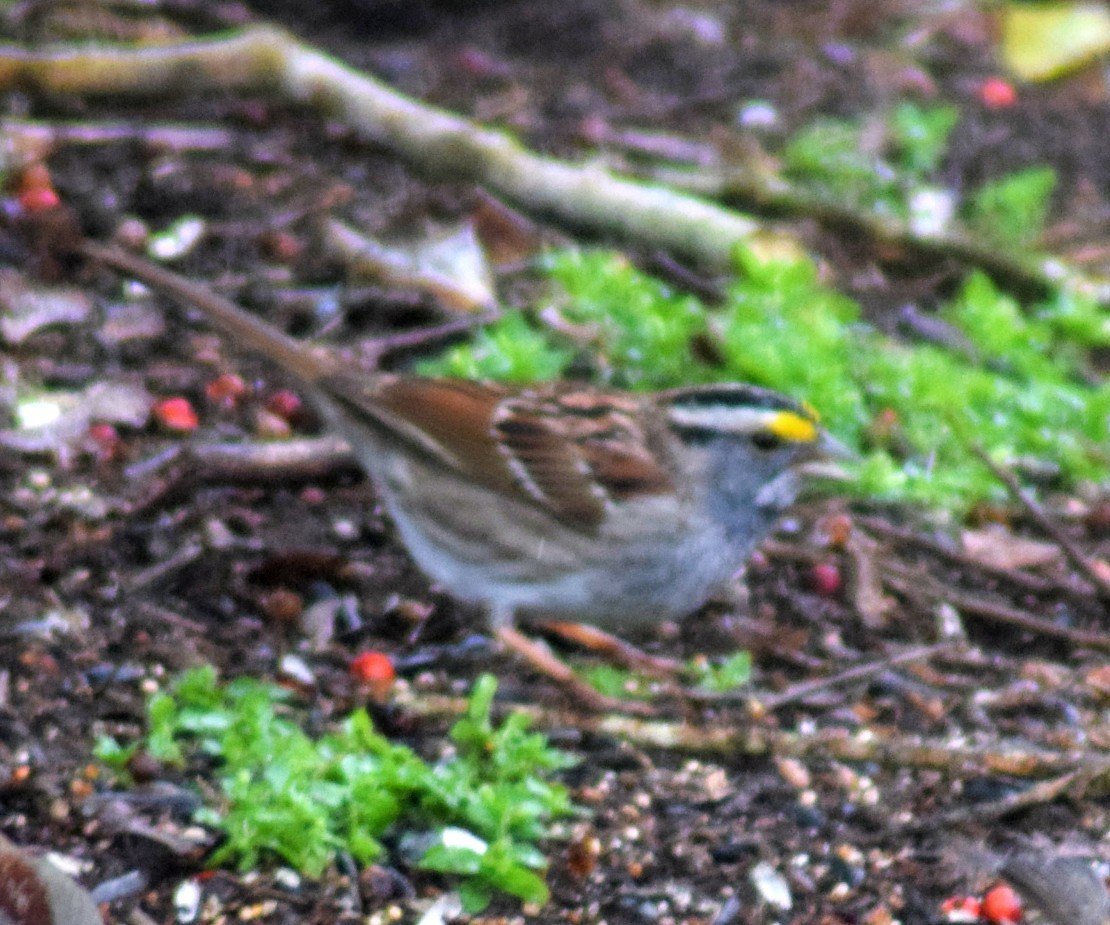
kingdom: Animalia
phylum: Chordata
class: Aves
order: Passeriformes
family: Passerellidae
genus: Zonotrichia
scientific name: Zonotrichia albicollis
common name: White-throated sparrow
